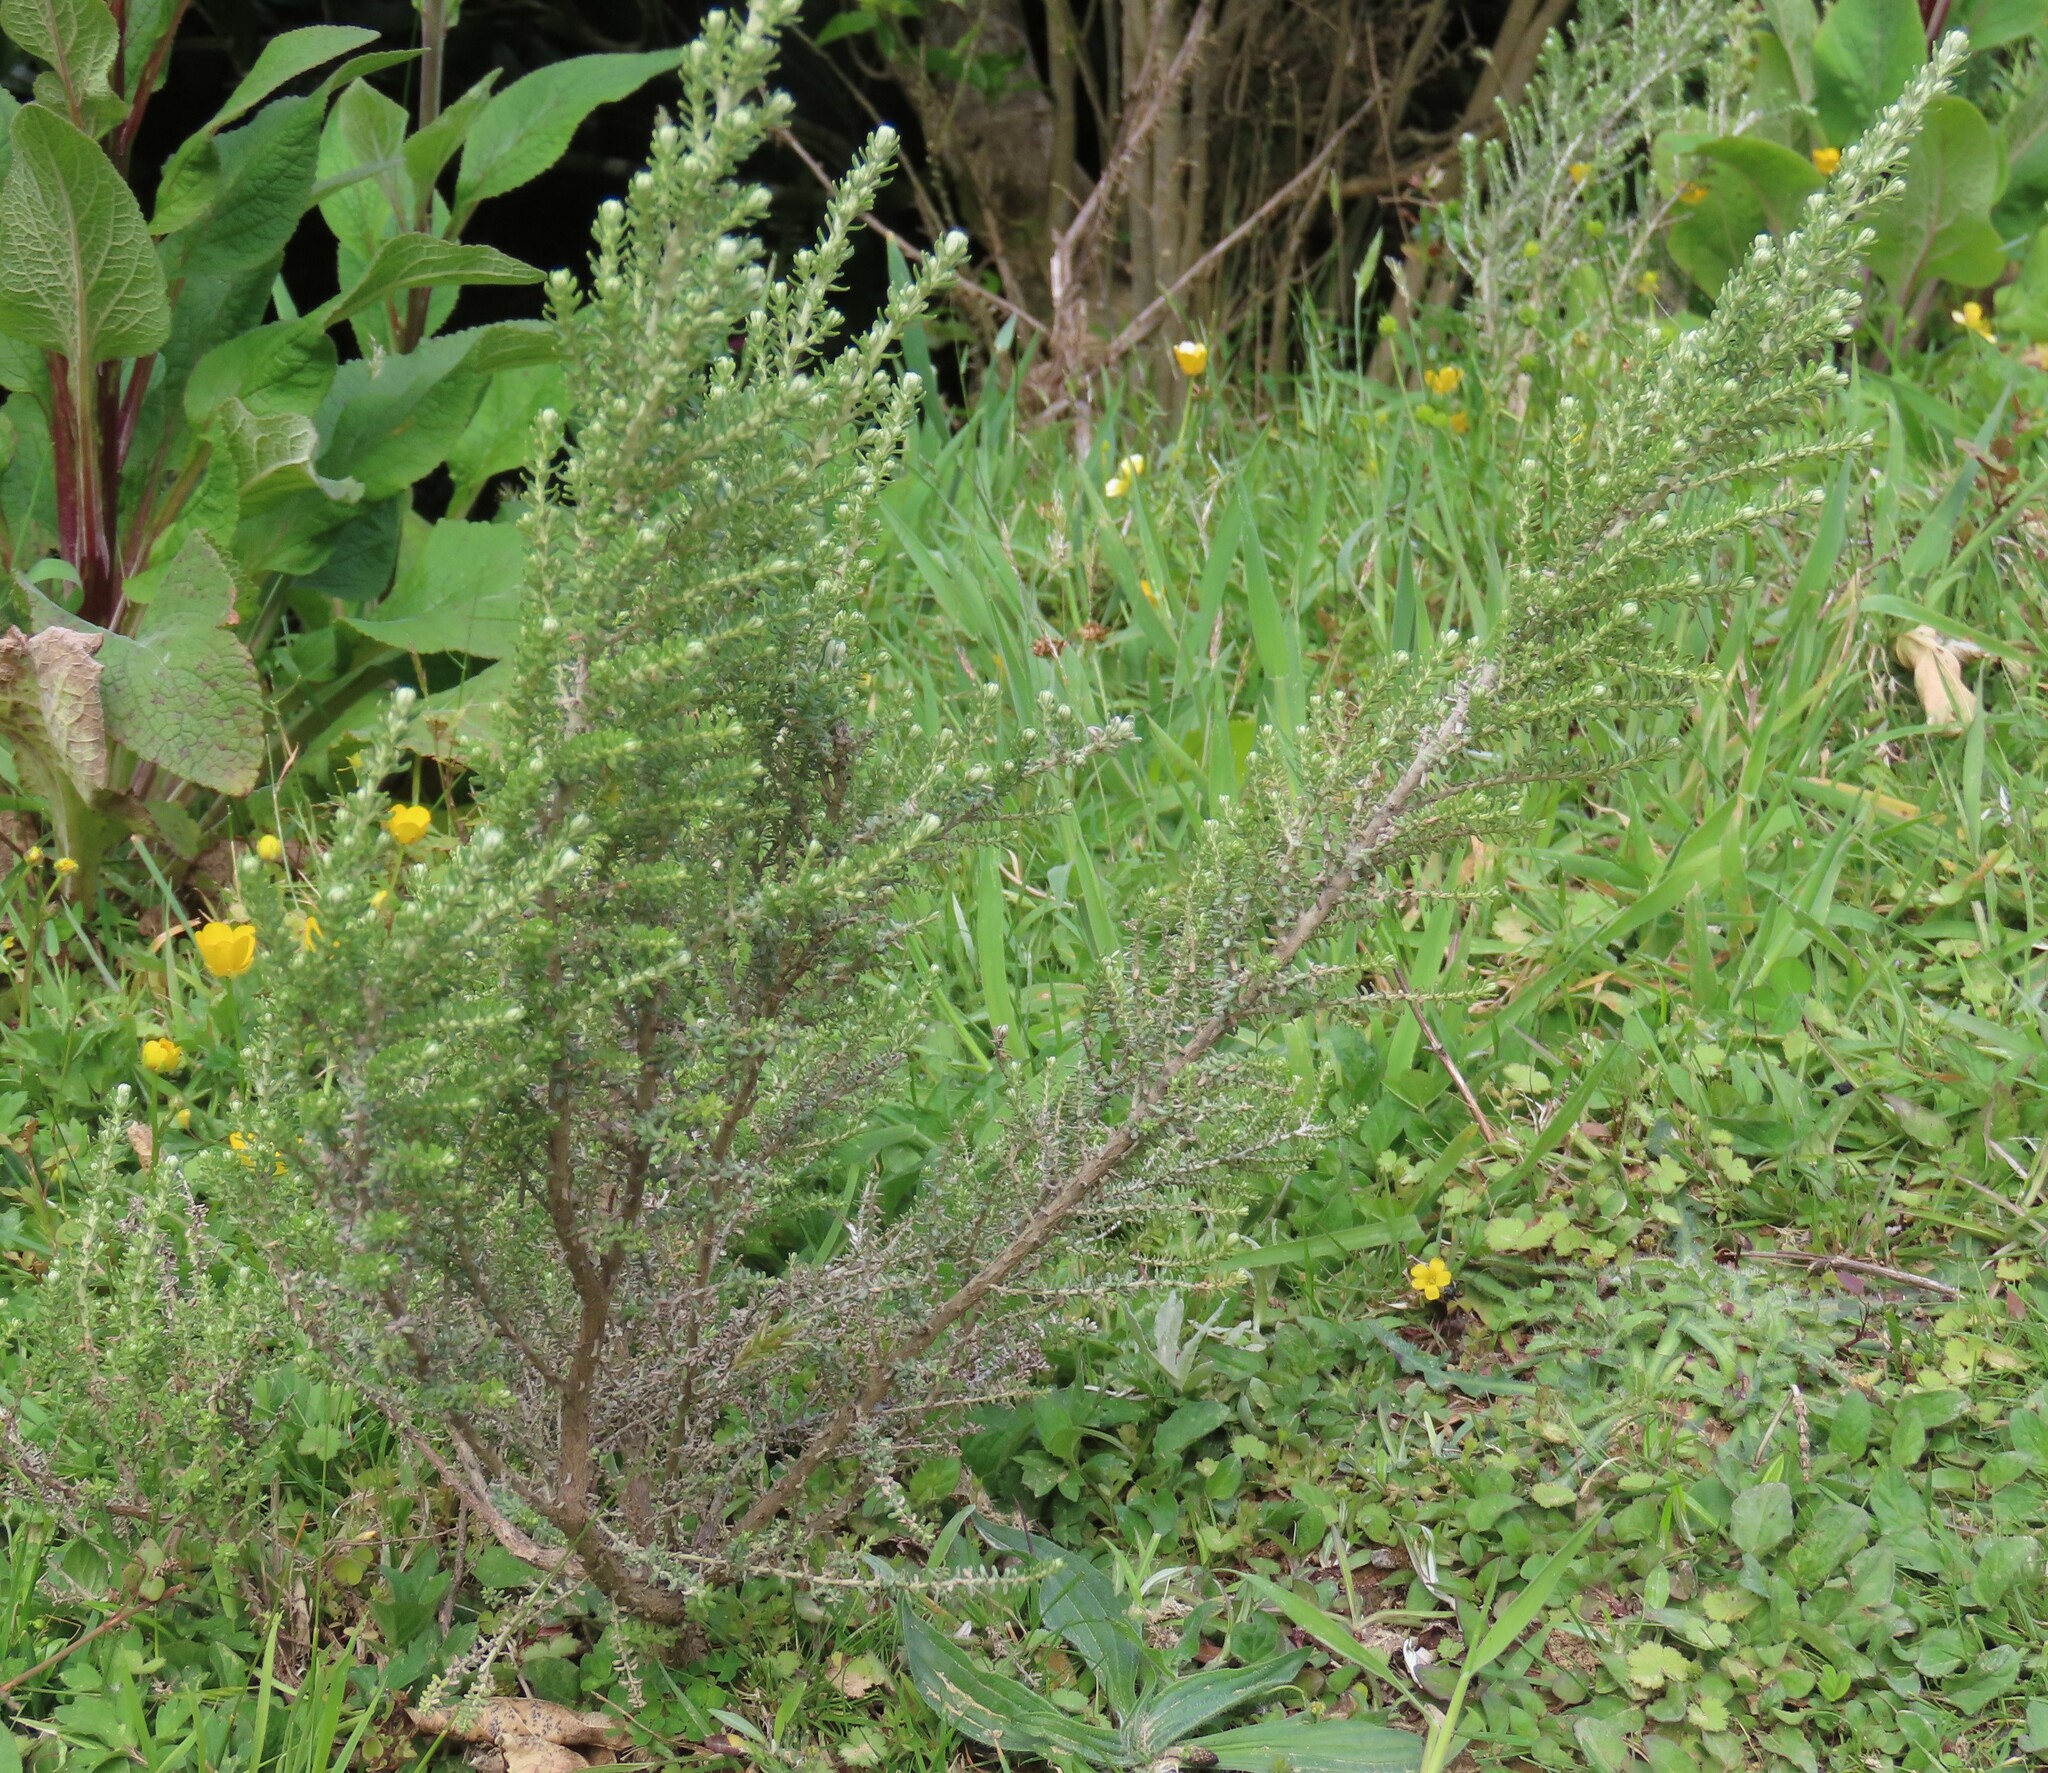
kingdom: Plantae
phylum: Tracheophyta
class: Magnoliopsida
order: Asterales
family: Asteraceae
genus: Ozothamnus
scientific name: Ozothamnus leptophyllus
